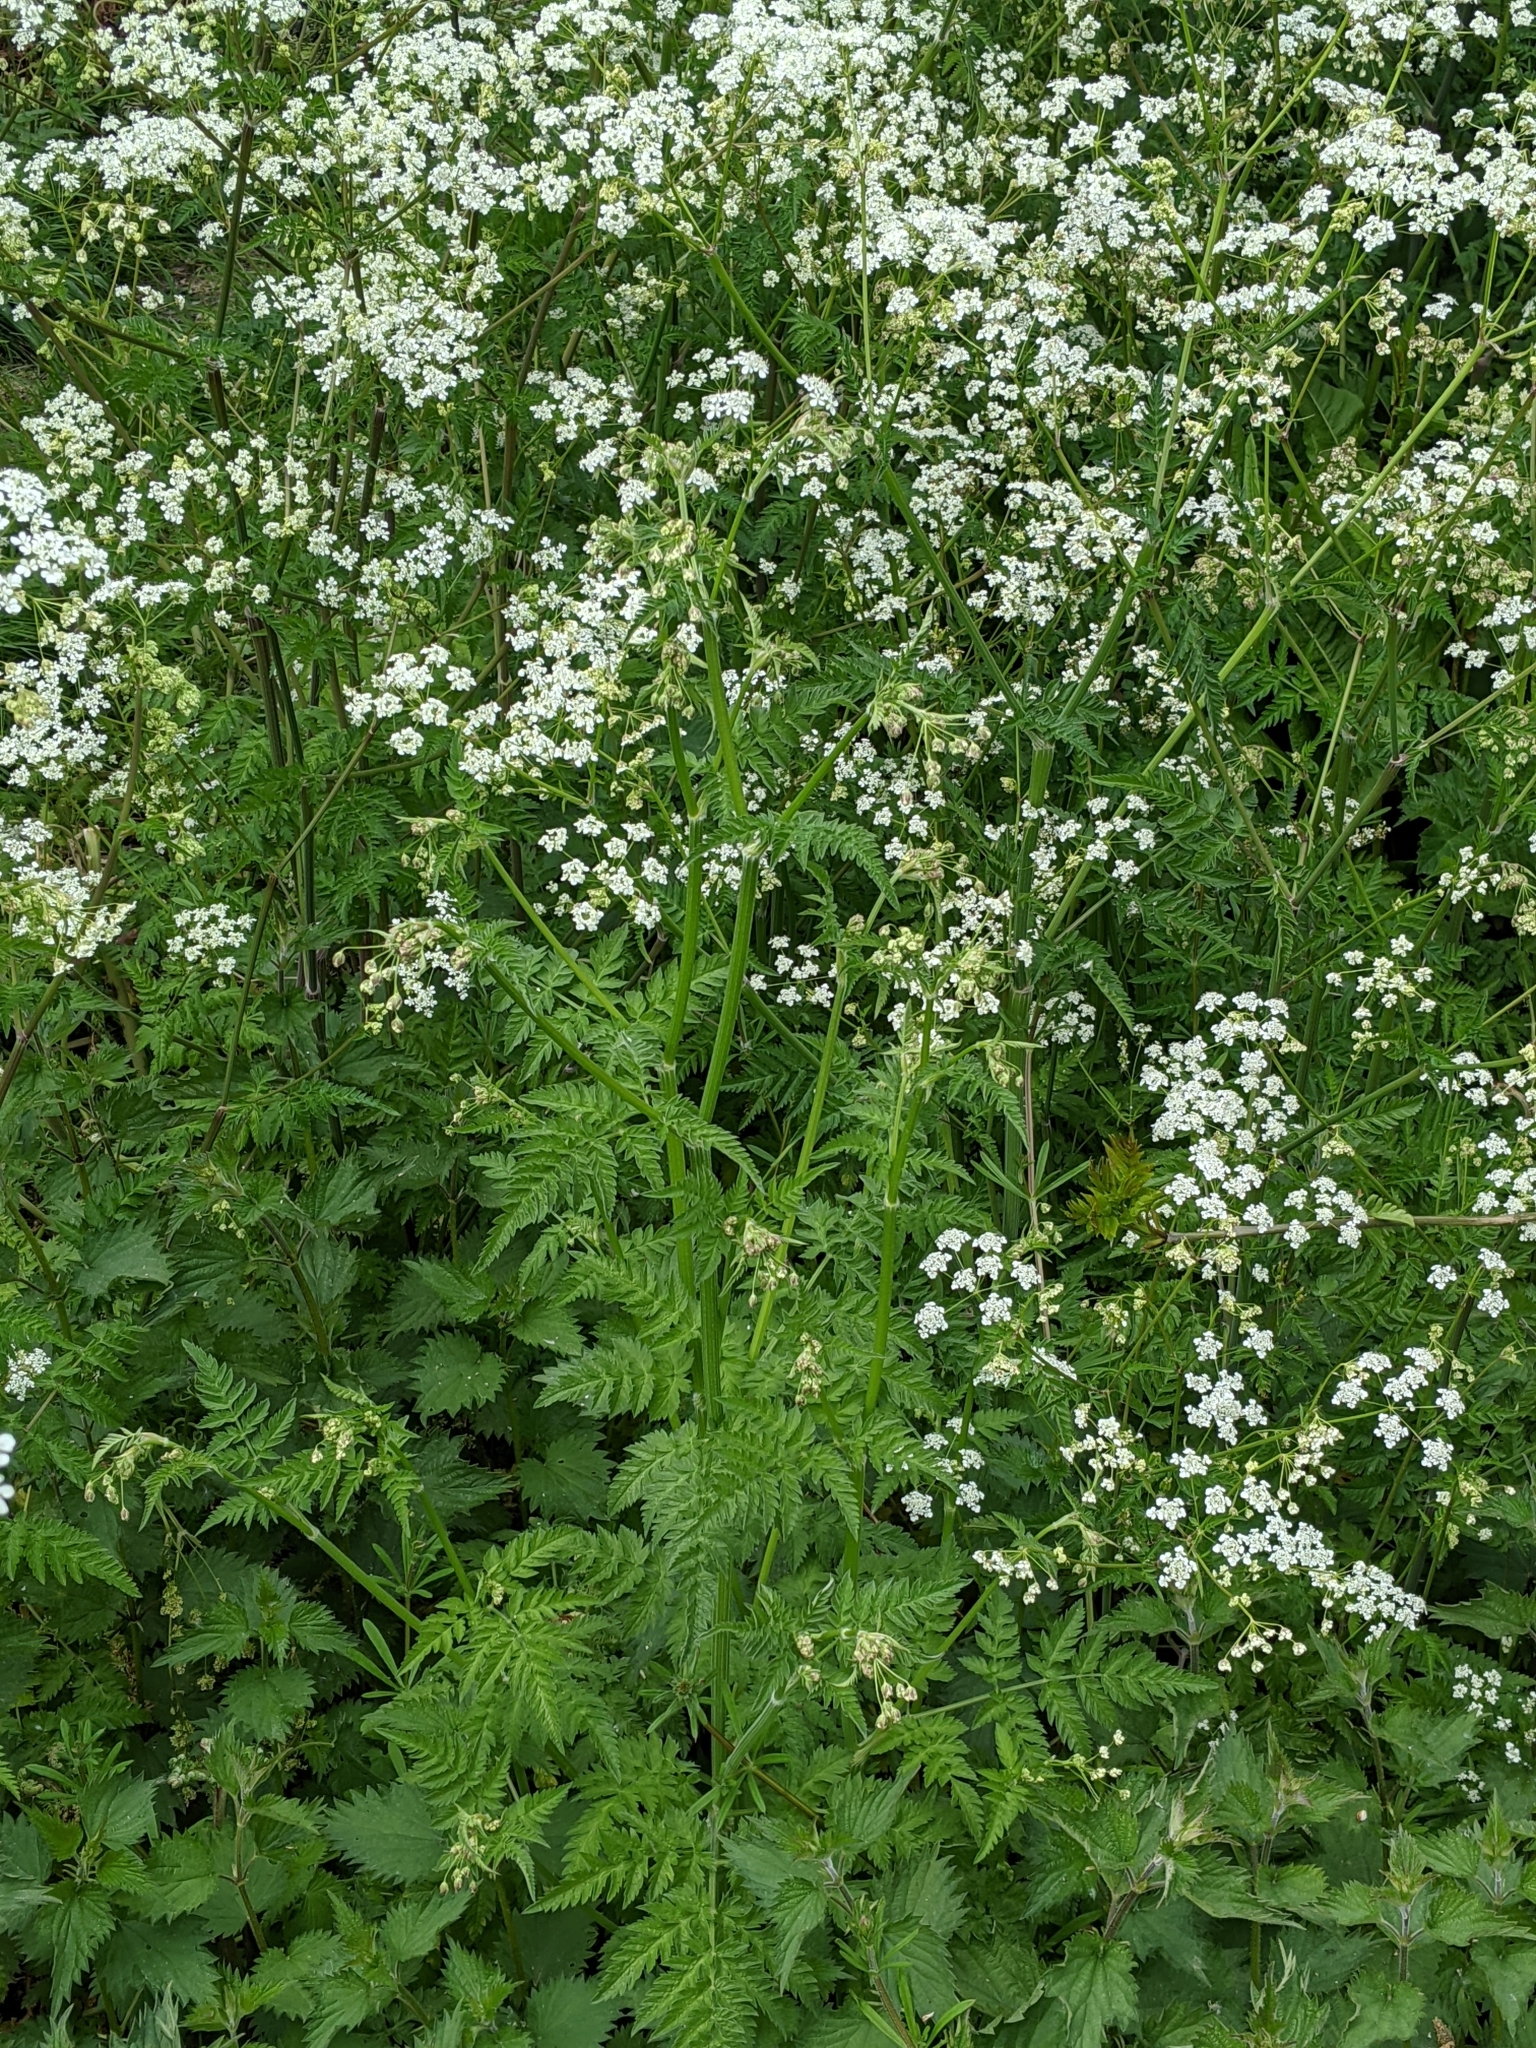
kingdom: Plantae
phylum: Tracheophyta
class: Magnoliopsida
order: Apiales
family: Apiaceae
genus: Anthriscus
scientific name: Anthriscus sylvestris
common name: Cow parsley
